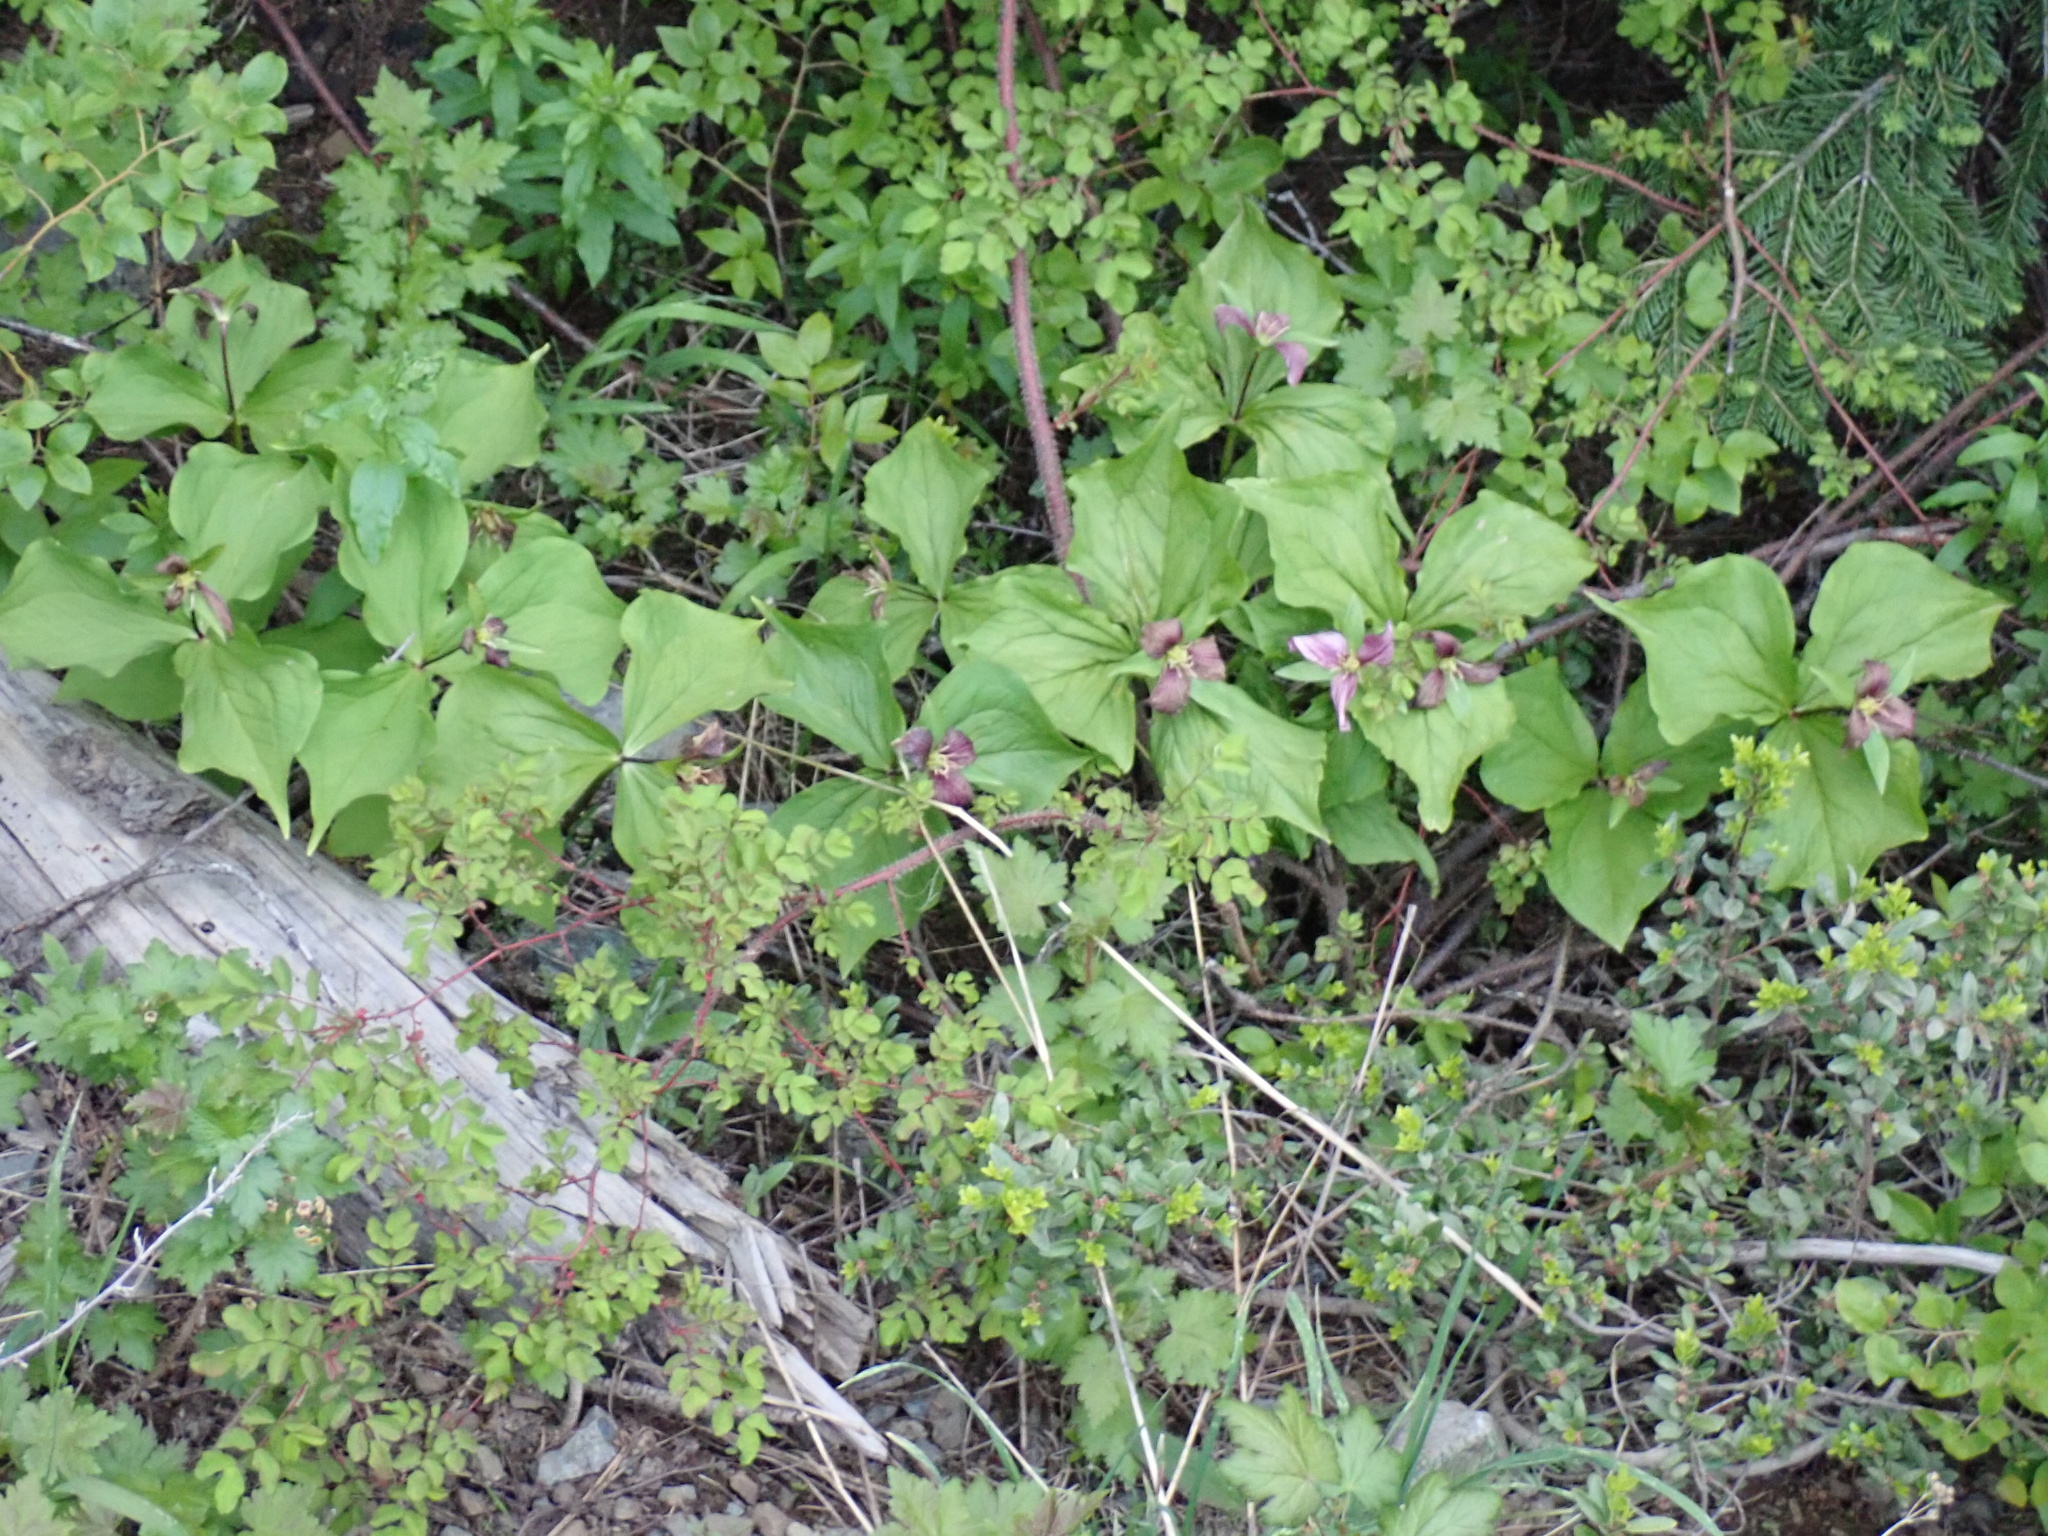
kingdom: Plantae
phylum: Tracheophyta
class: Liliopsida
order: Liliales
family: Melanthiaceae
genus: Trillium
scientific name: Trillium ovatum
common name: Pacific trillium
